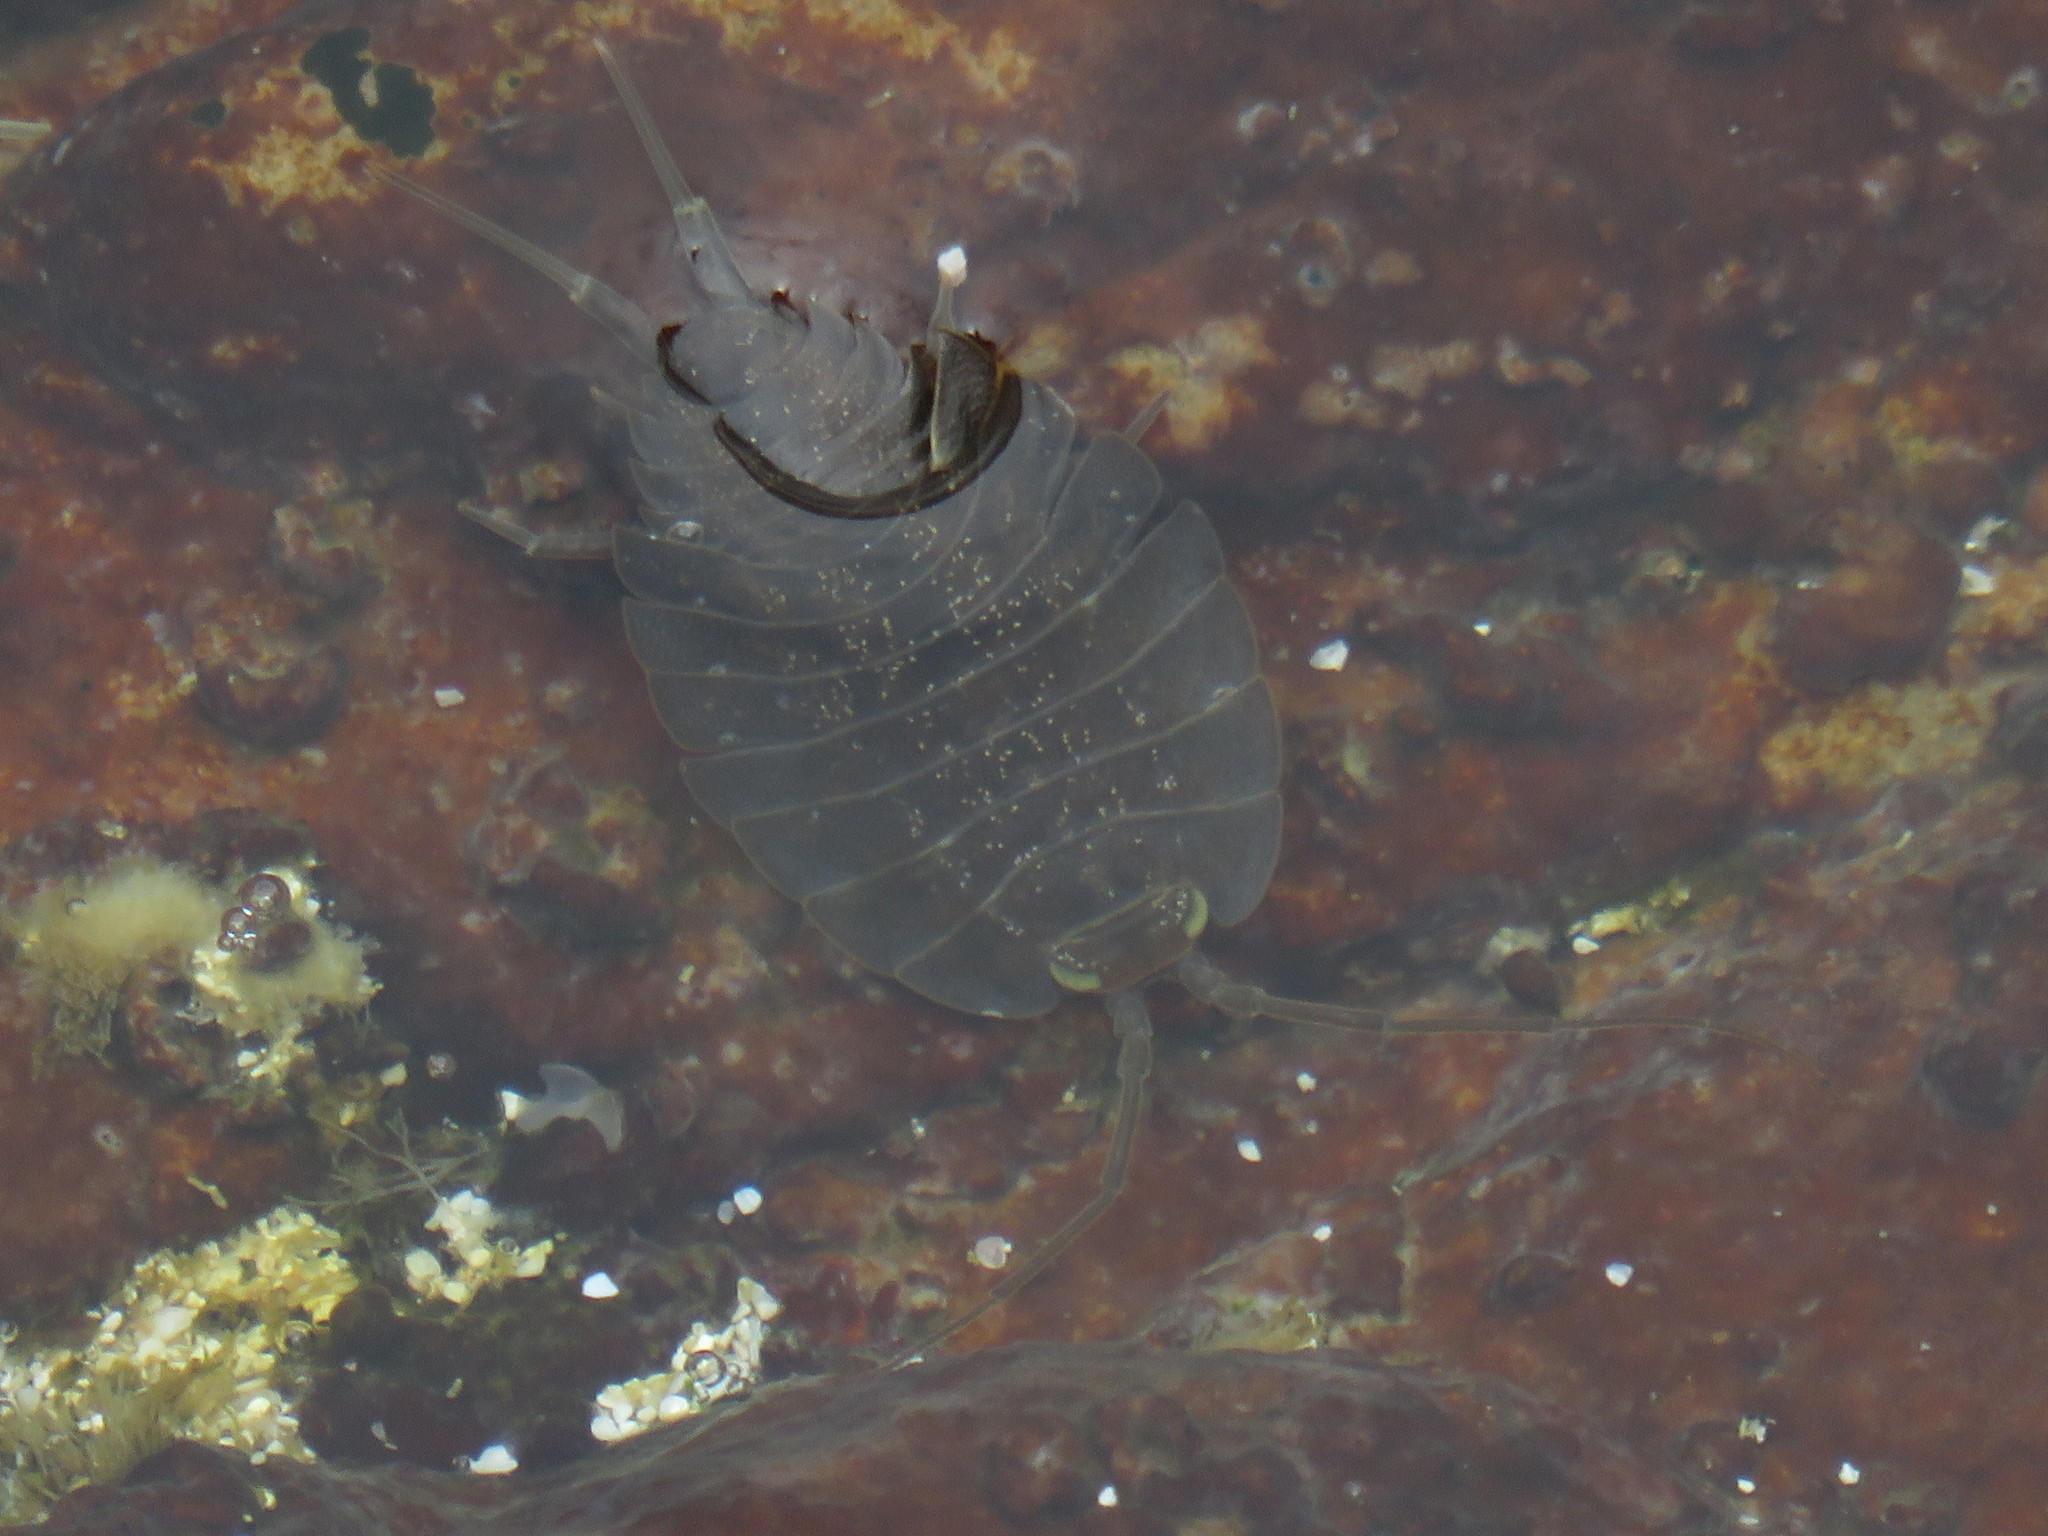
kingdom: Animalia
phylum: Arthropoda
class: Malacostraca
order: Isopoda
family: Ligiidae
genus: Ligia
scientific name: Ligia dilatata
